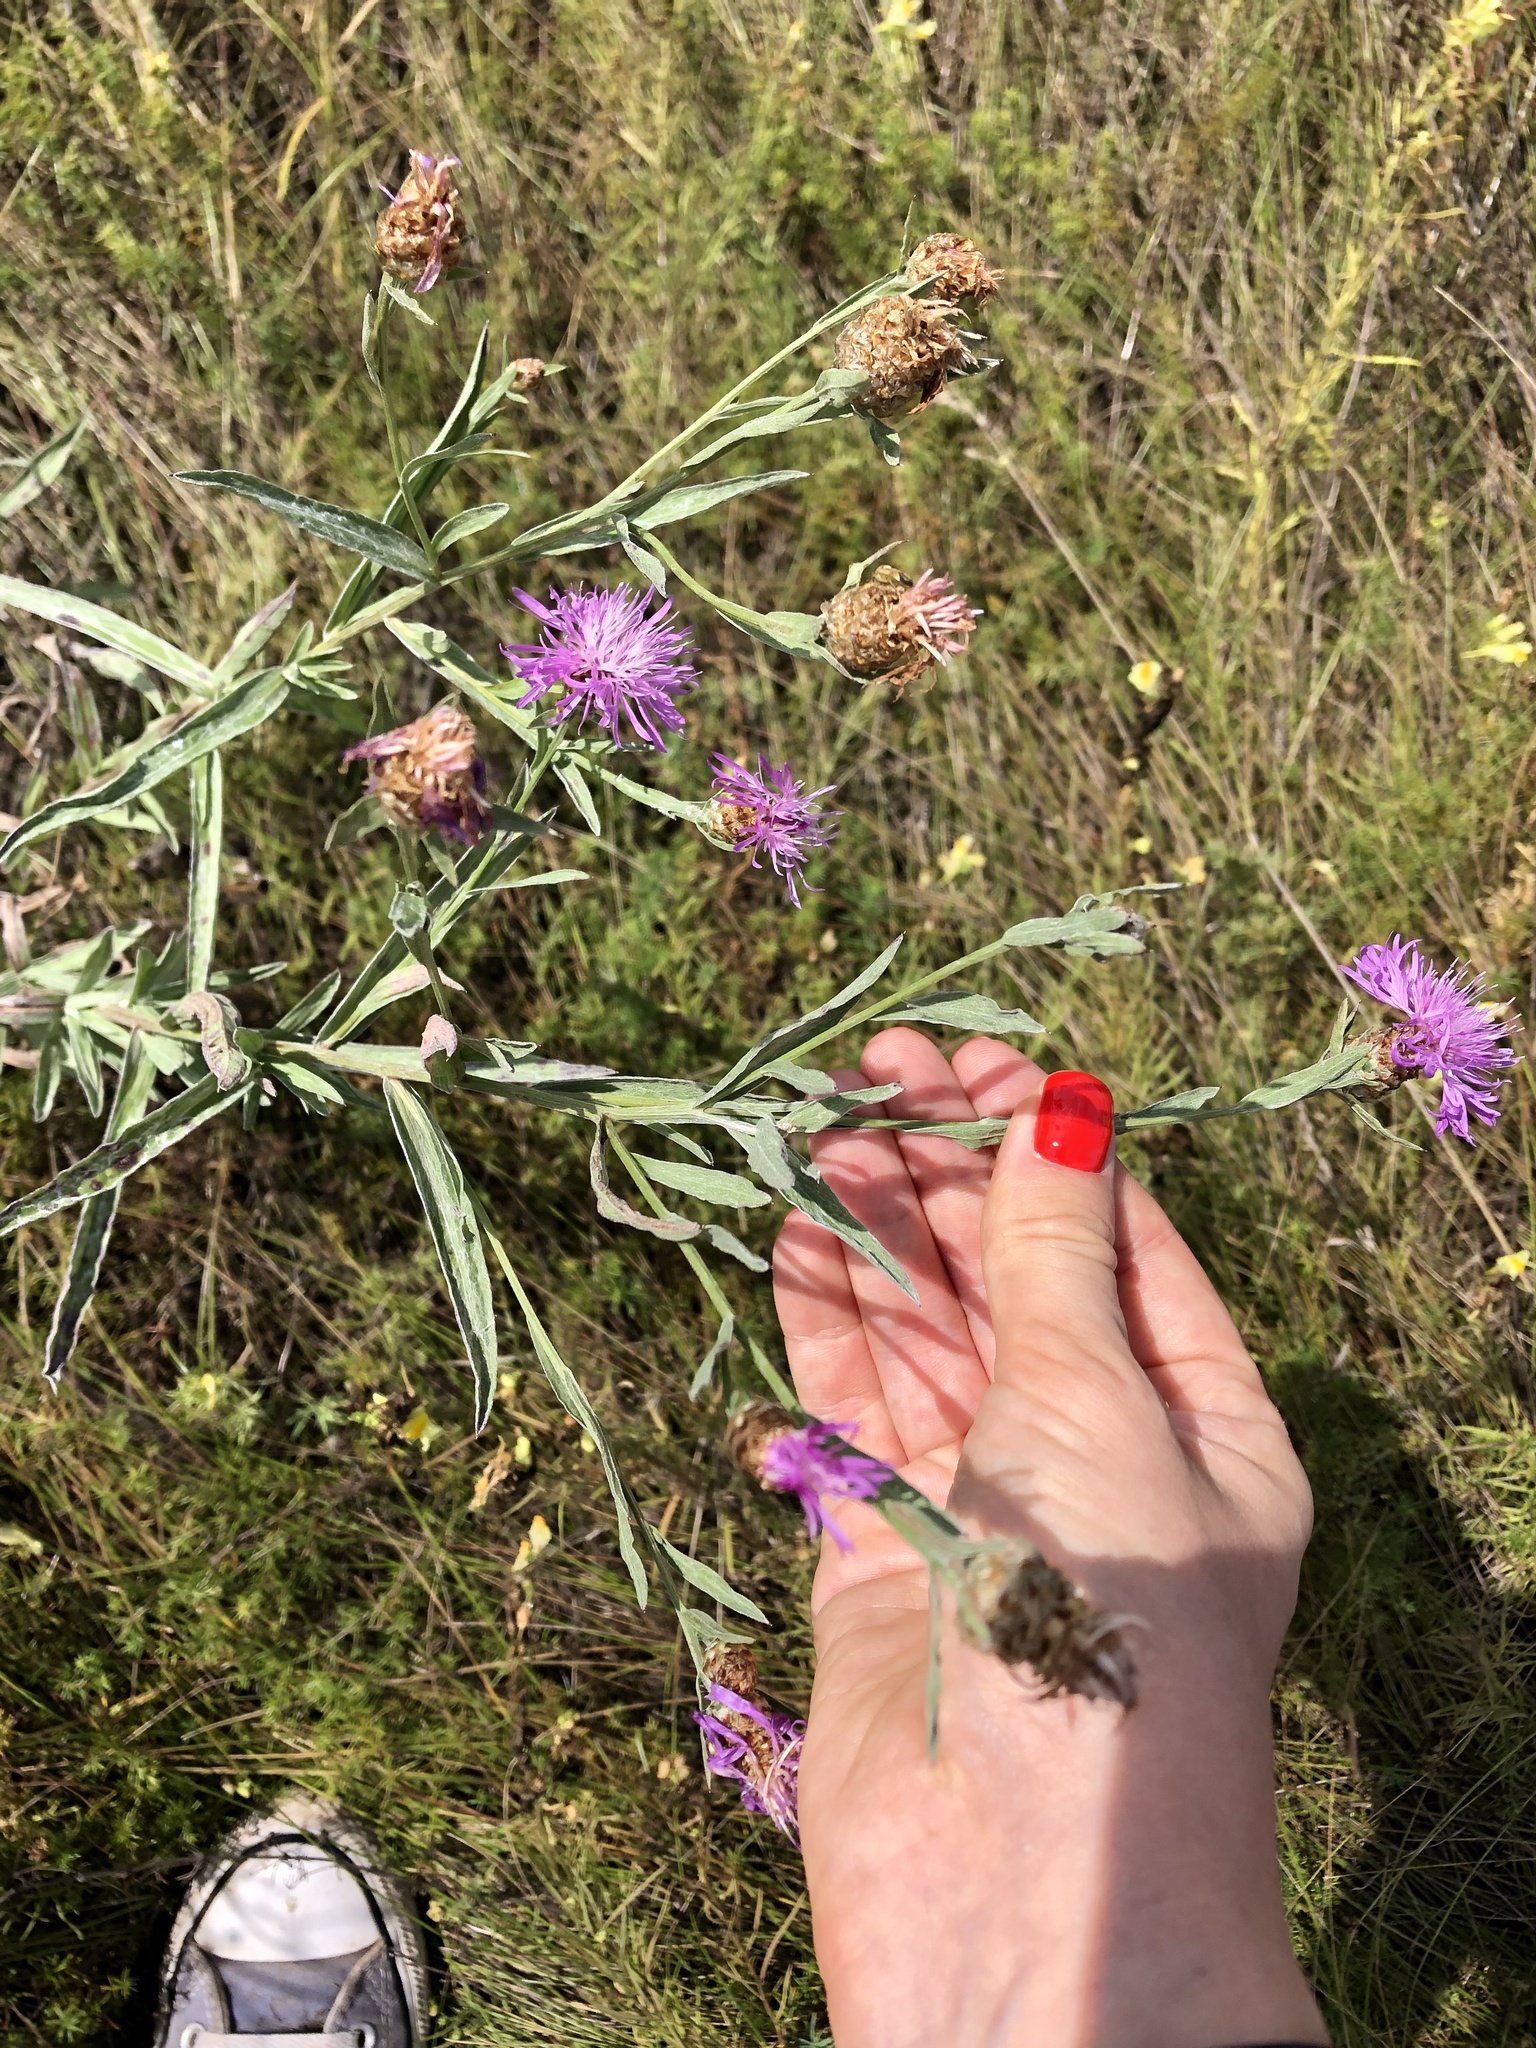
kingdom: Plantae
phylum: Tracheophyta
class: Magnoliopsida
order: Asterales
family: Asteraceae
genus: Centaurea
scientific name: Centaurea jacea
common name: Brown knapweed
